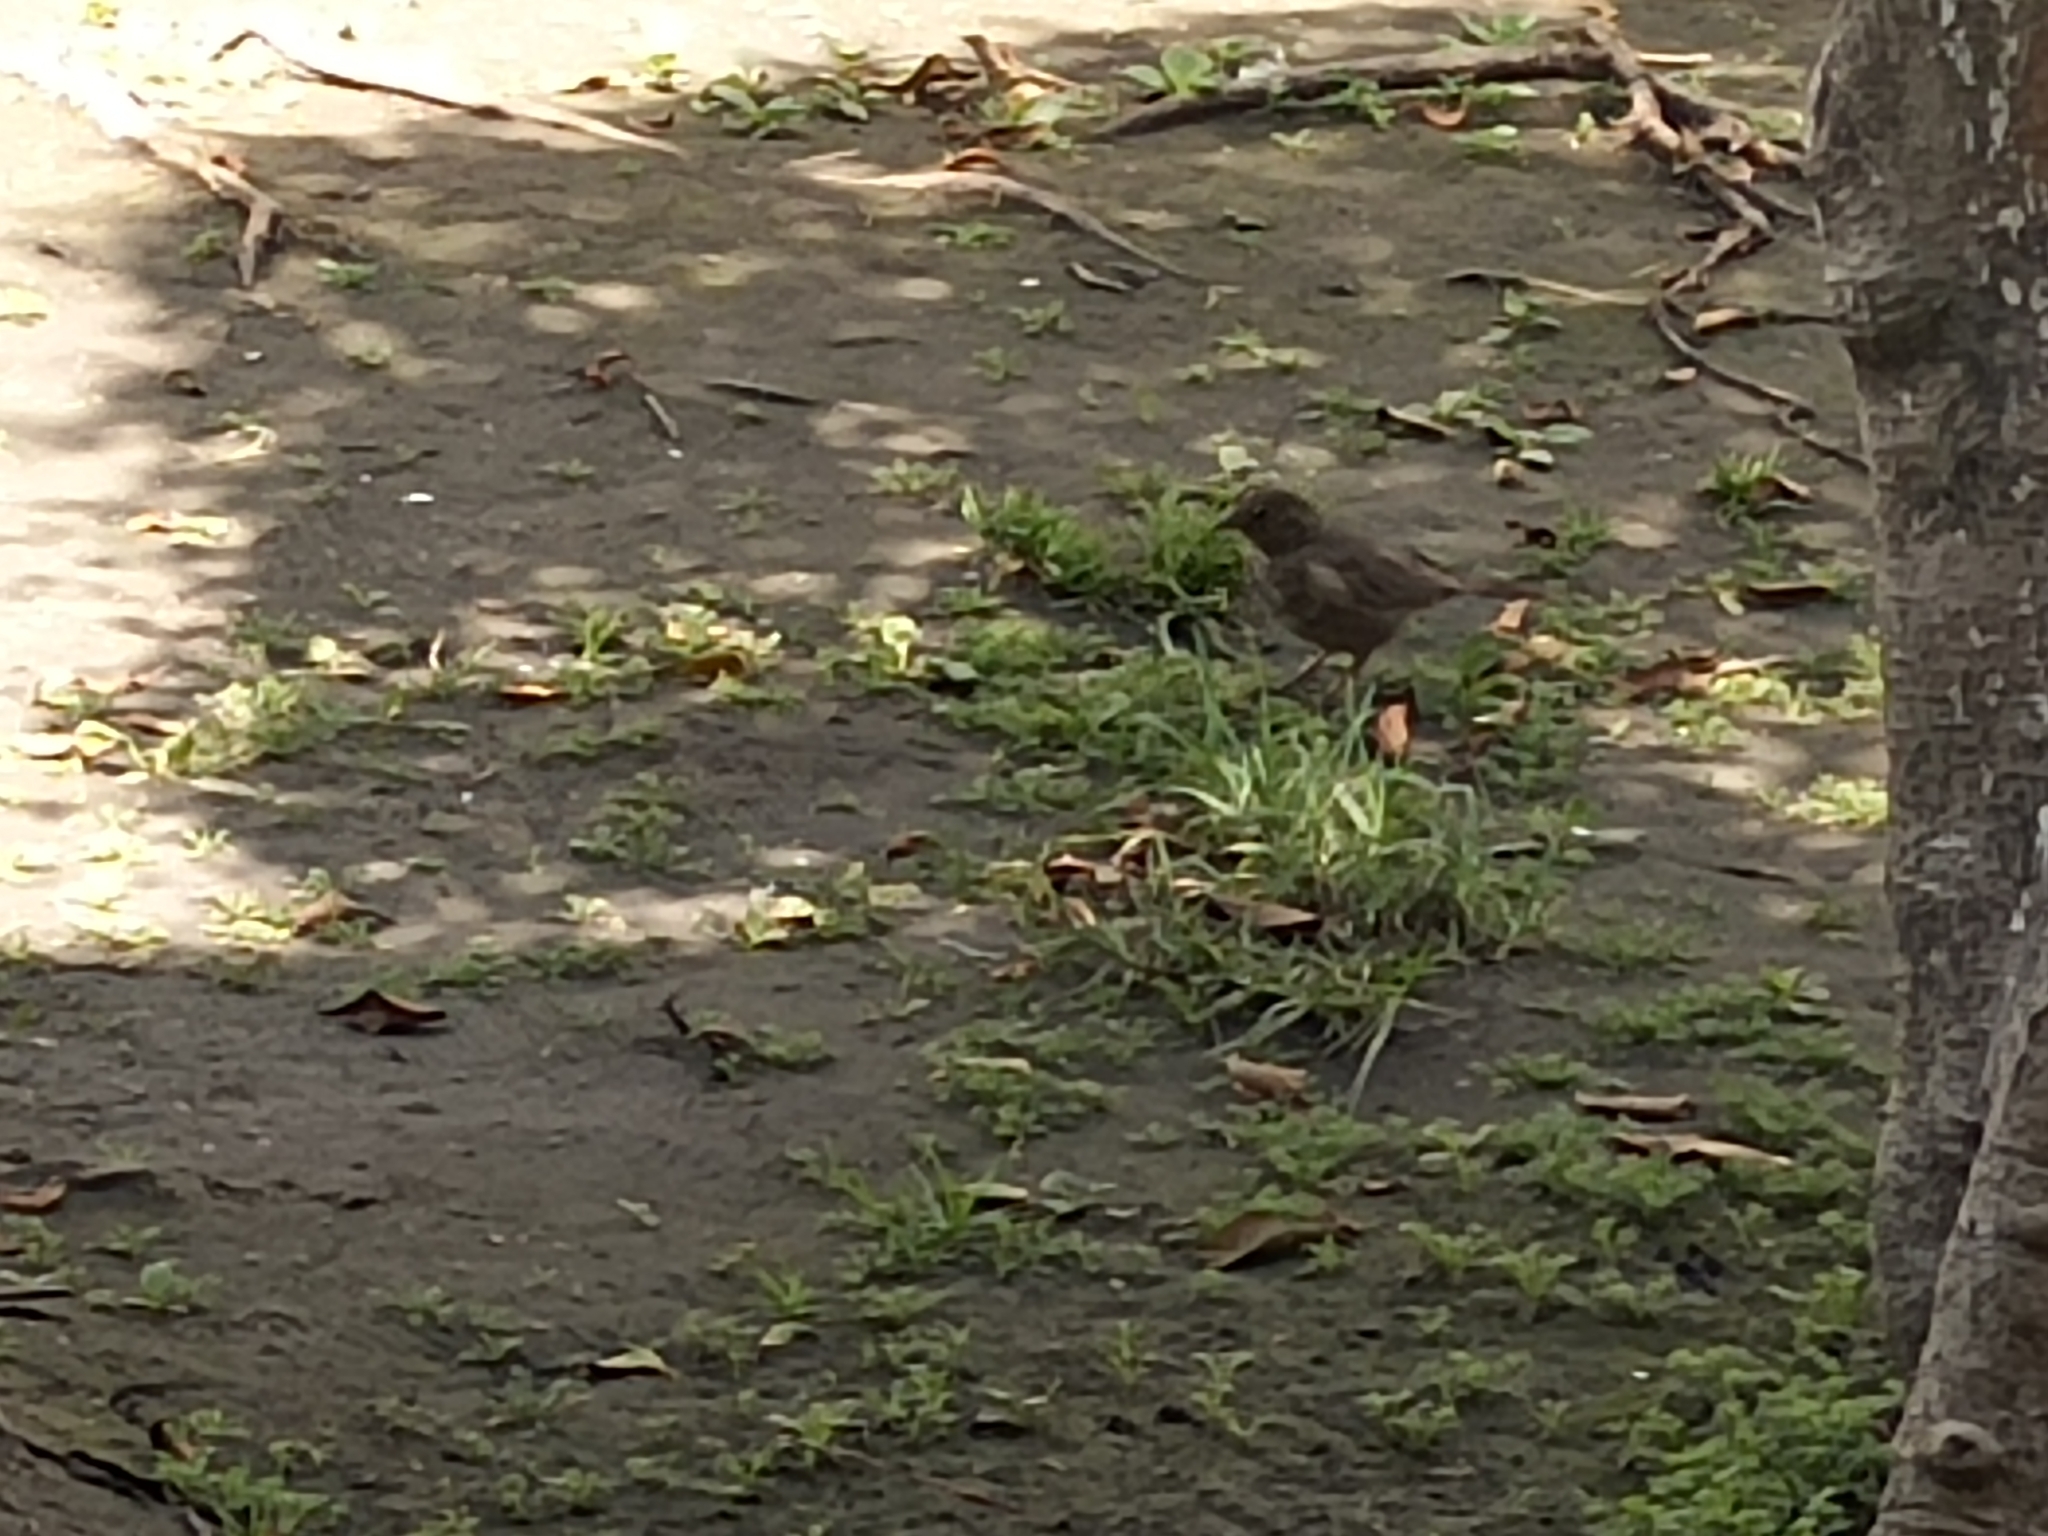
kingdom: Animalia
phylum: Chordata
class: Aves
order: Passeriformes
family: Passerellidae
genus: Melozone
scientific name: Melozone fusca
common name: Canyon towhee
